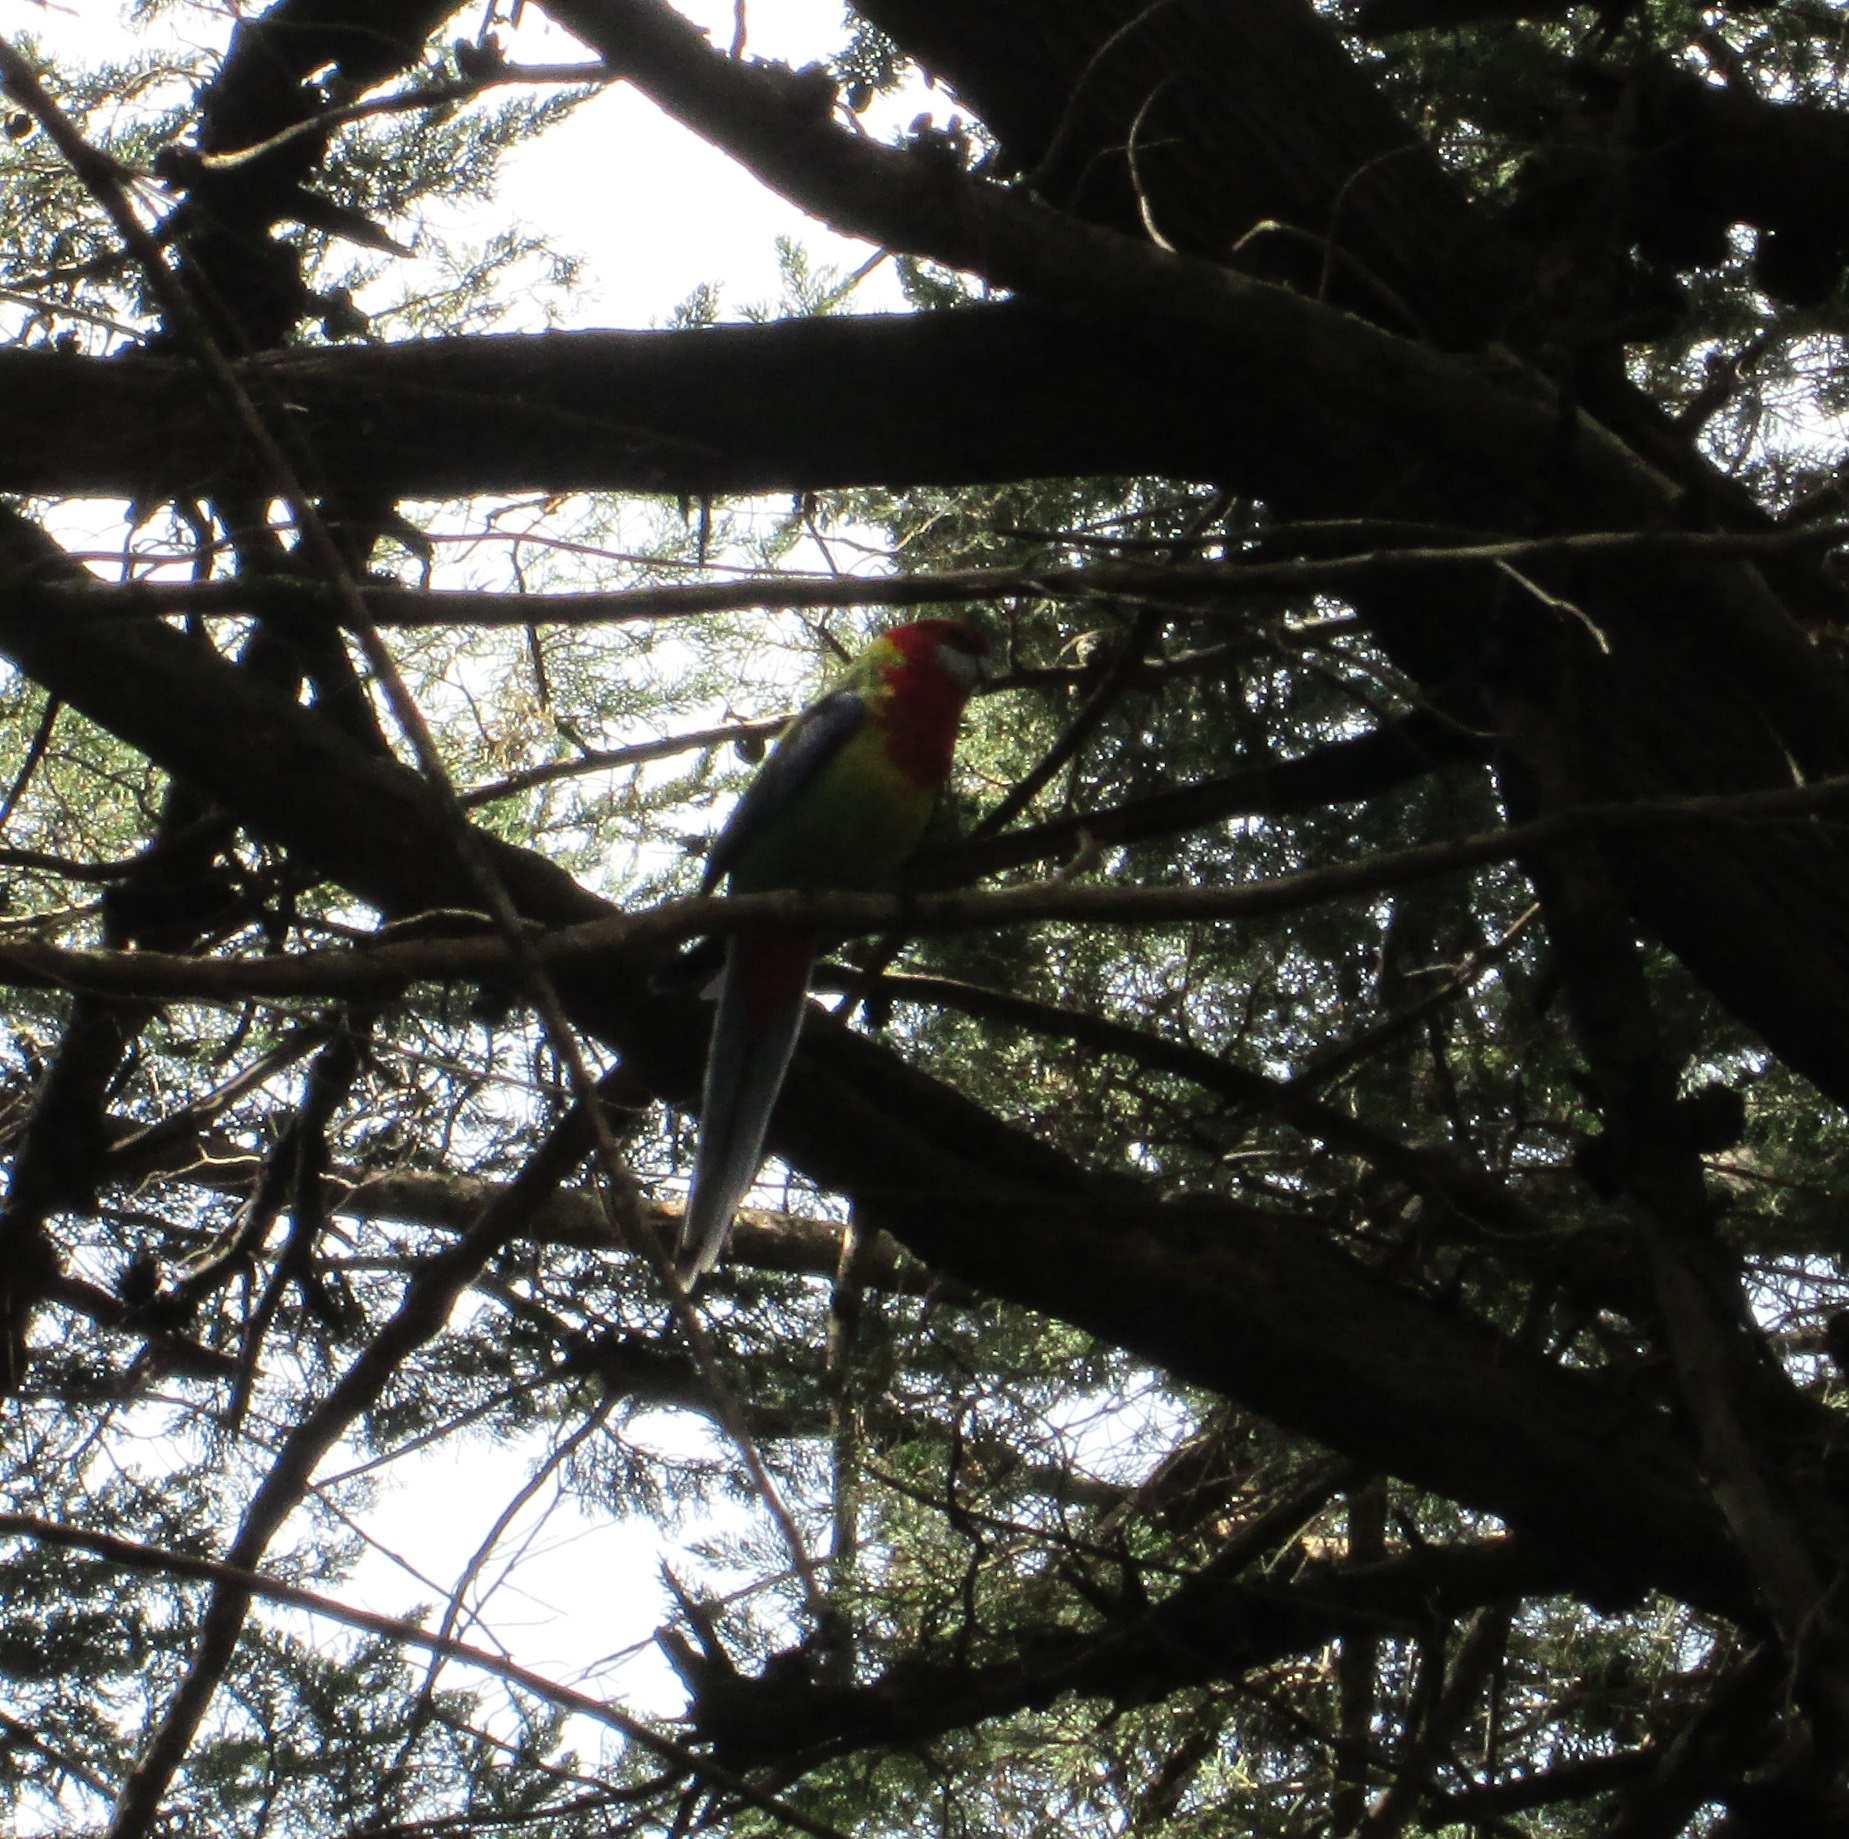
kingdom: Animalia
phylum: Chordata
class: Aves
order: Psittaciformes
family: Psittacidae
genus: Platycercus
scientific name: Platycercus eximius
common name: Eastern rosella
